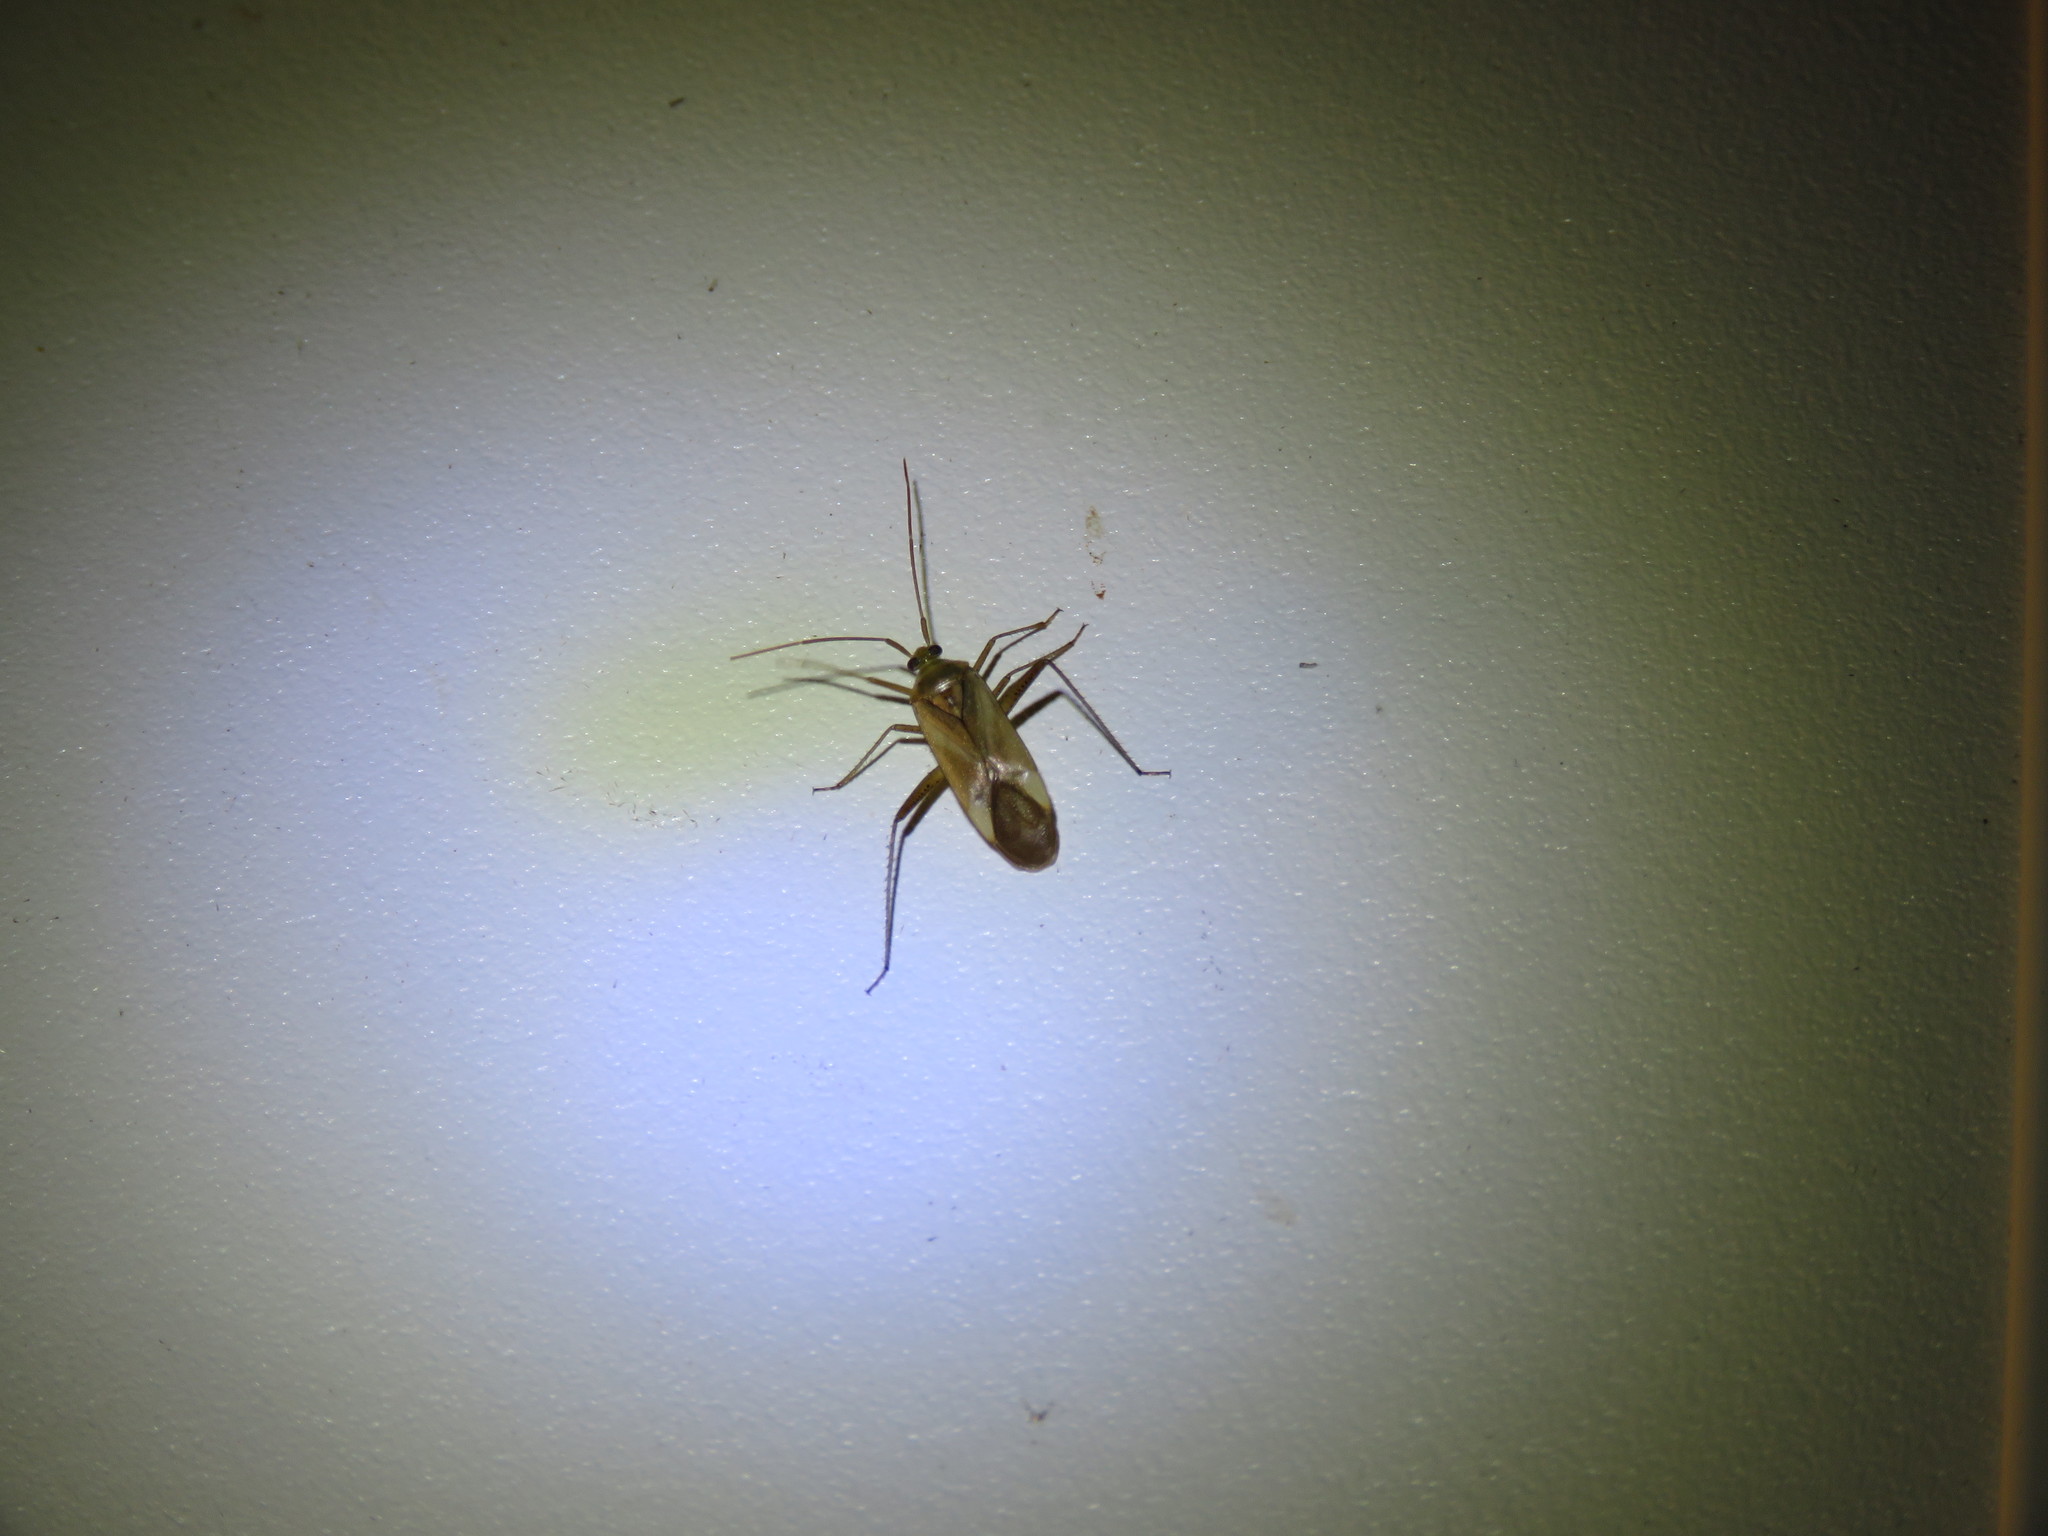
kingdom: Animalia
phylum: Arthropoda
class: Insecta
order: Hemiptera
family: Miridae
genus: Adelphocoris
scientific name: Adelphocoris lineolatus
